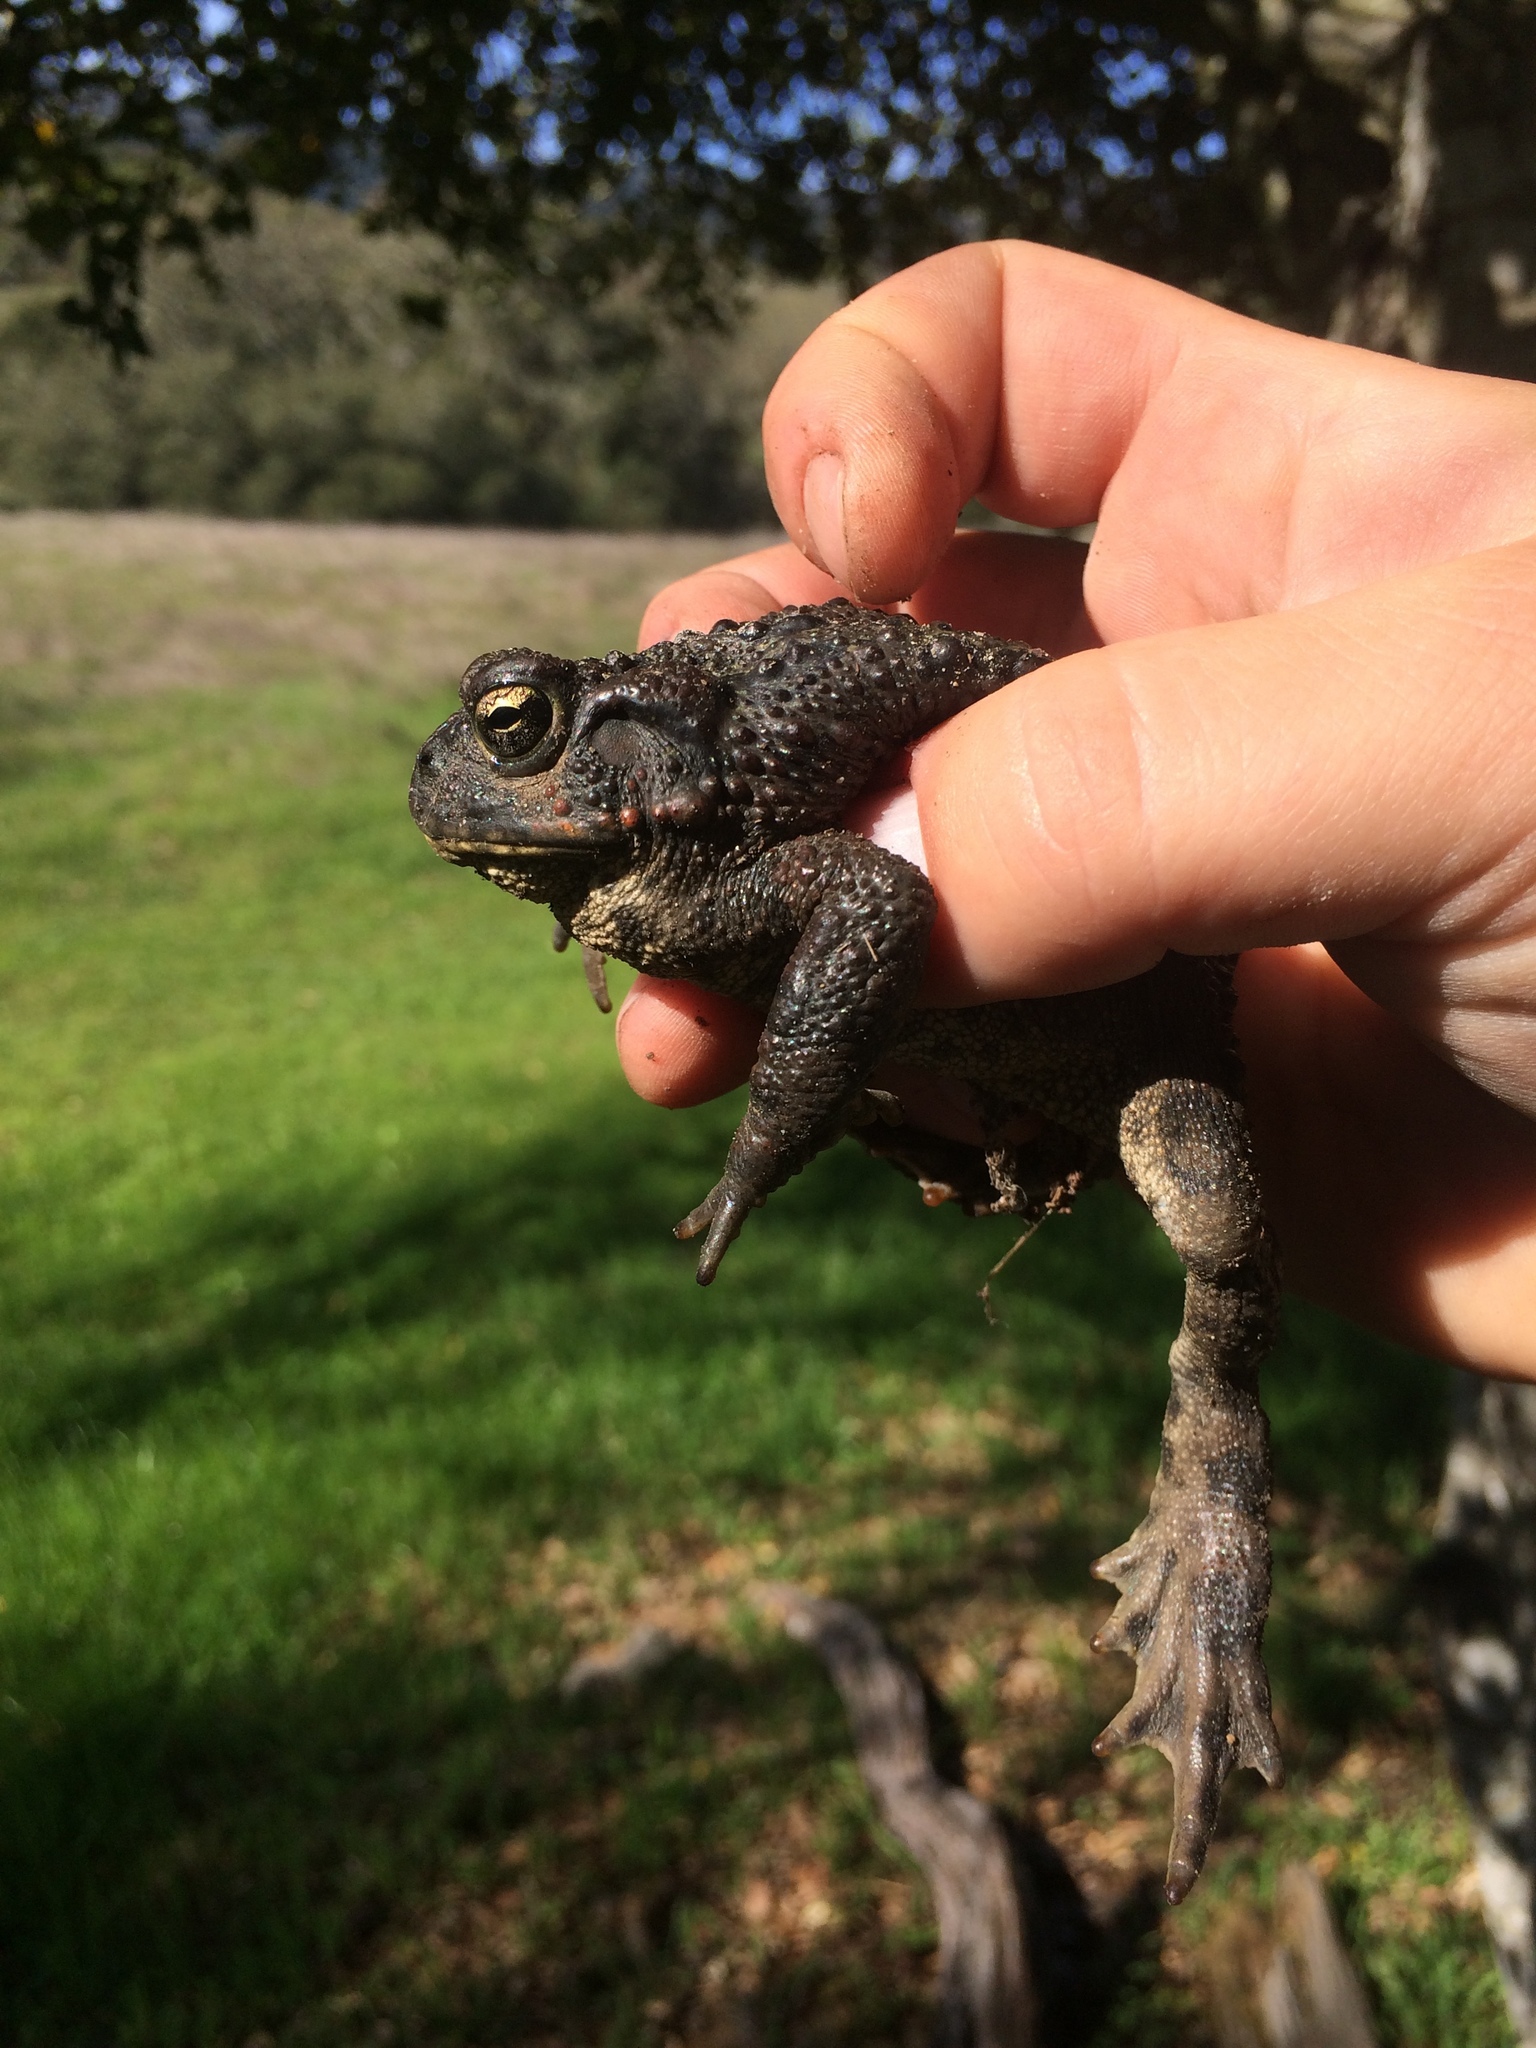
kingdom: Animalia
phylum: Chordata
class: Amphibia
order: Anura
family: Bufonidae
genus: Anaxyrus
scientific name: Anaxyrus boreas
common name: Western toad
